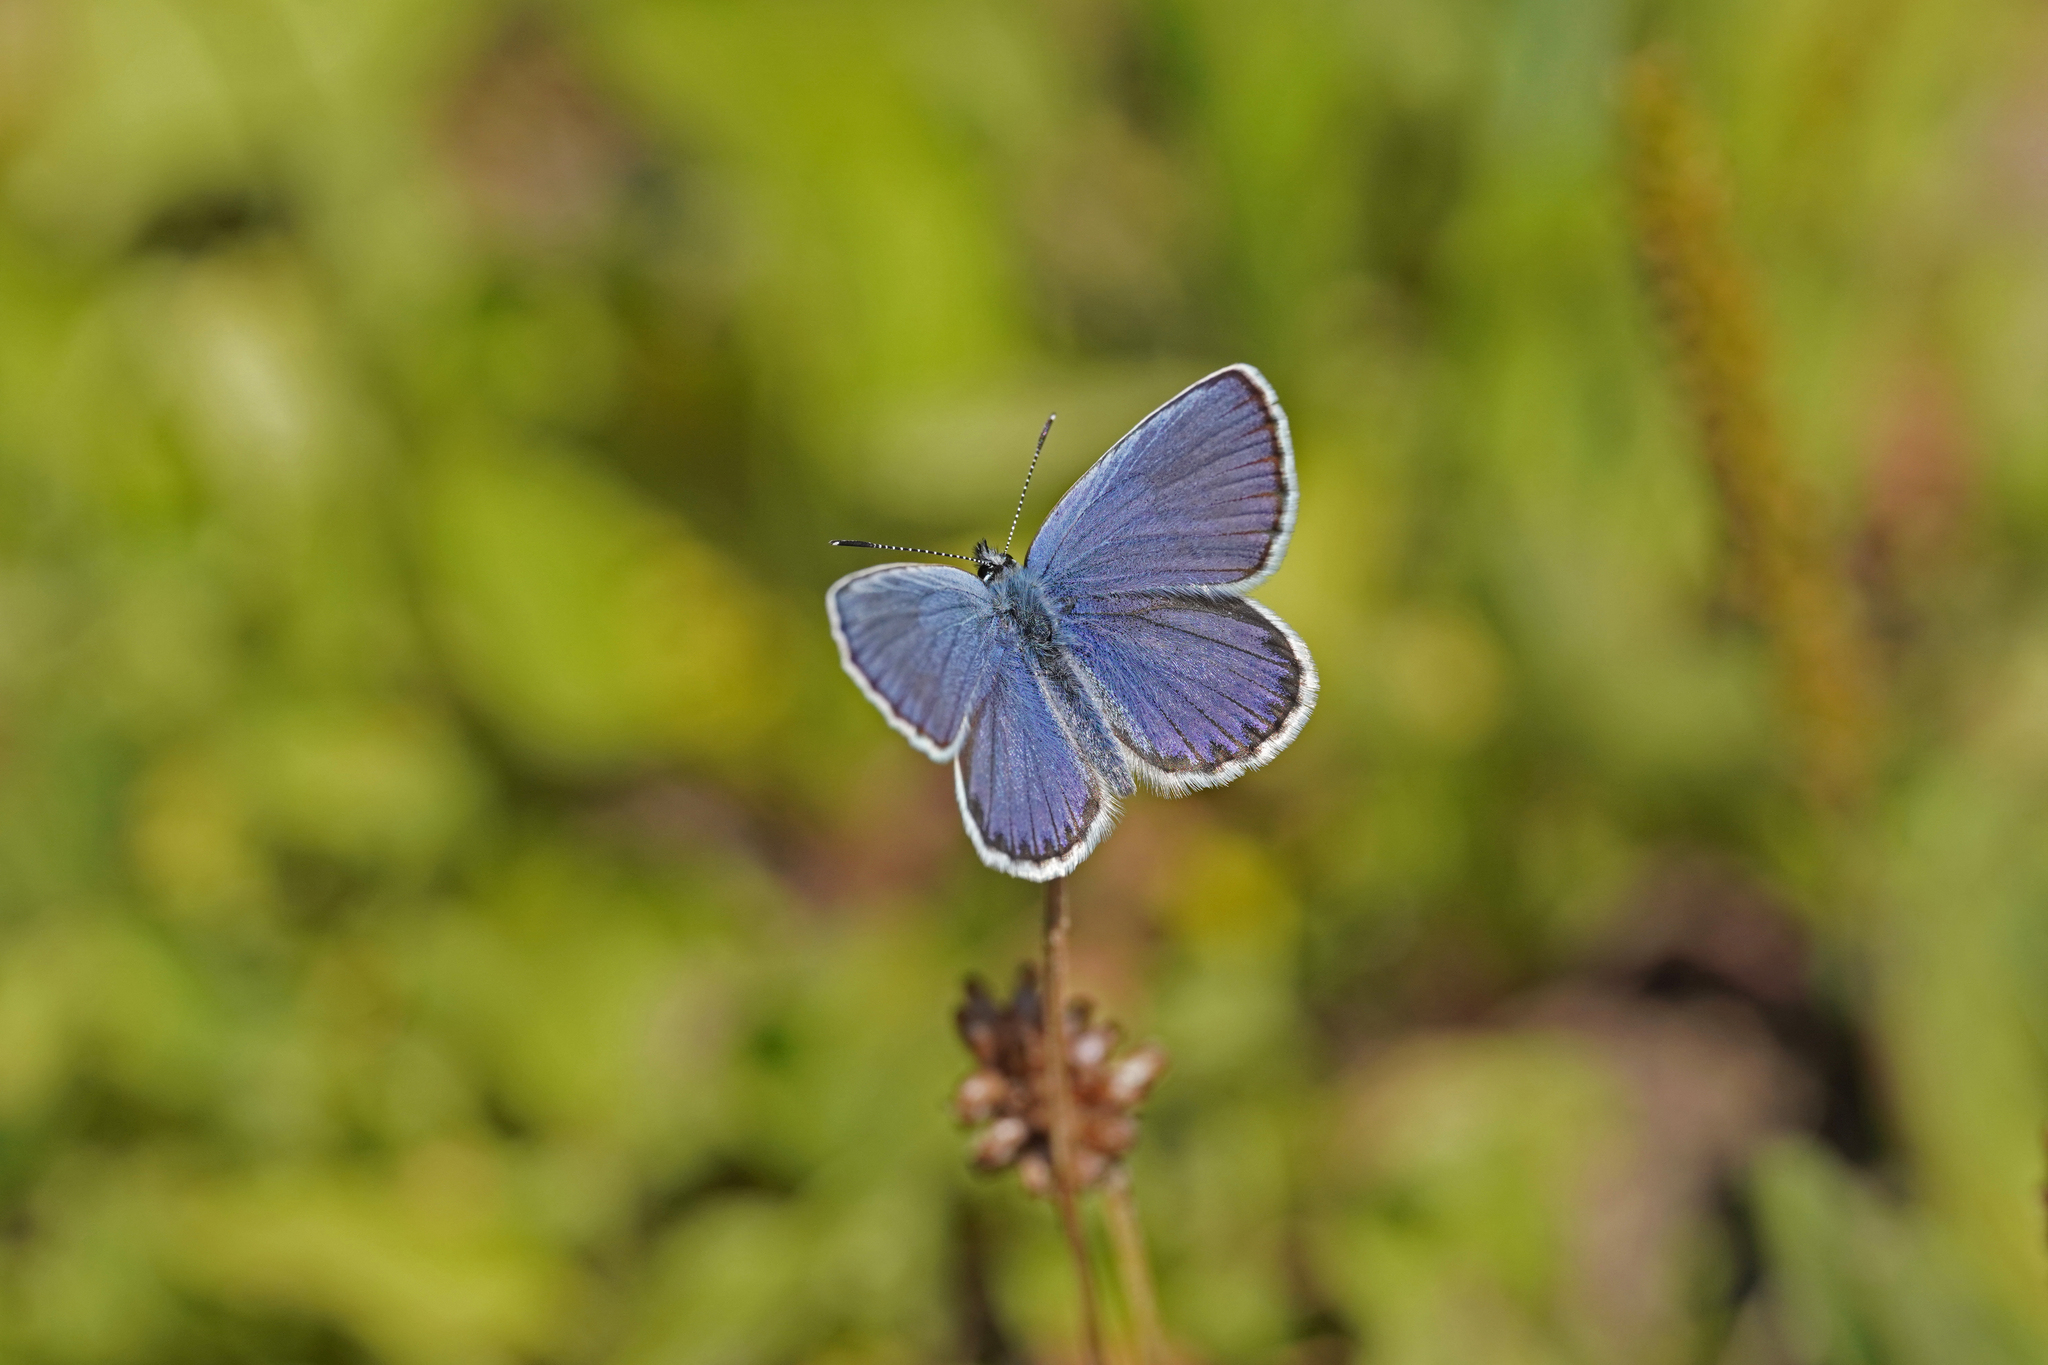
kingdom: Animalia
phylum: Arthropoda
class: Insecta
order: Lepidoptera
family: Lycaenidae
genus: Lycaeides
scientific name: Lycaeides idas
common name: Northern blue
